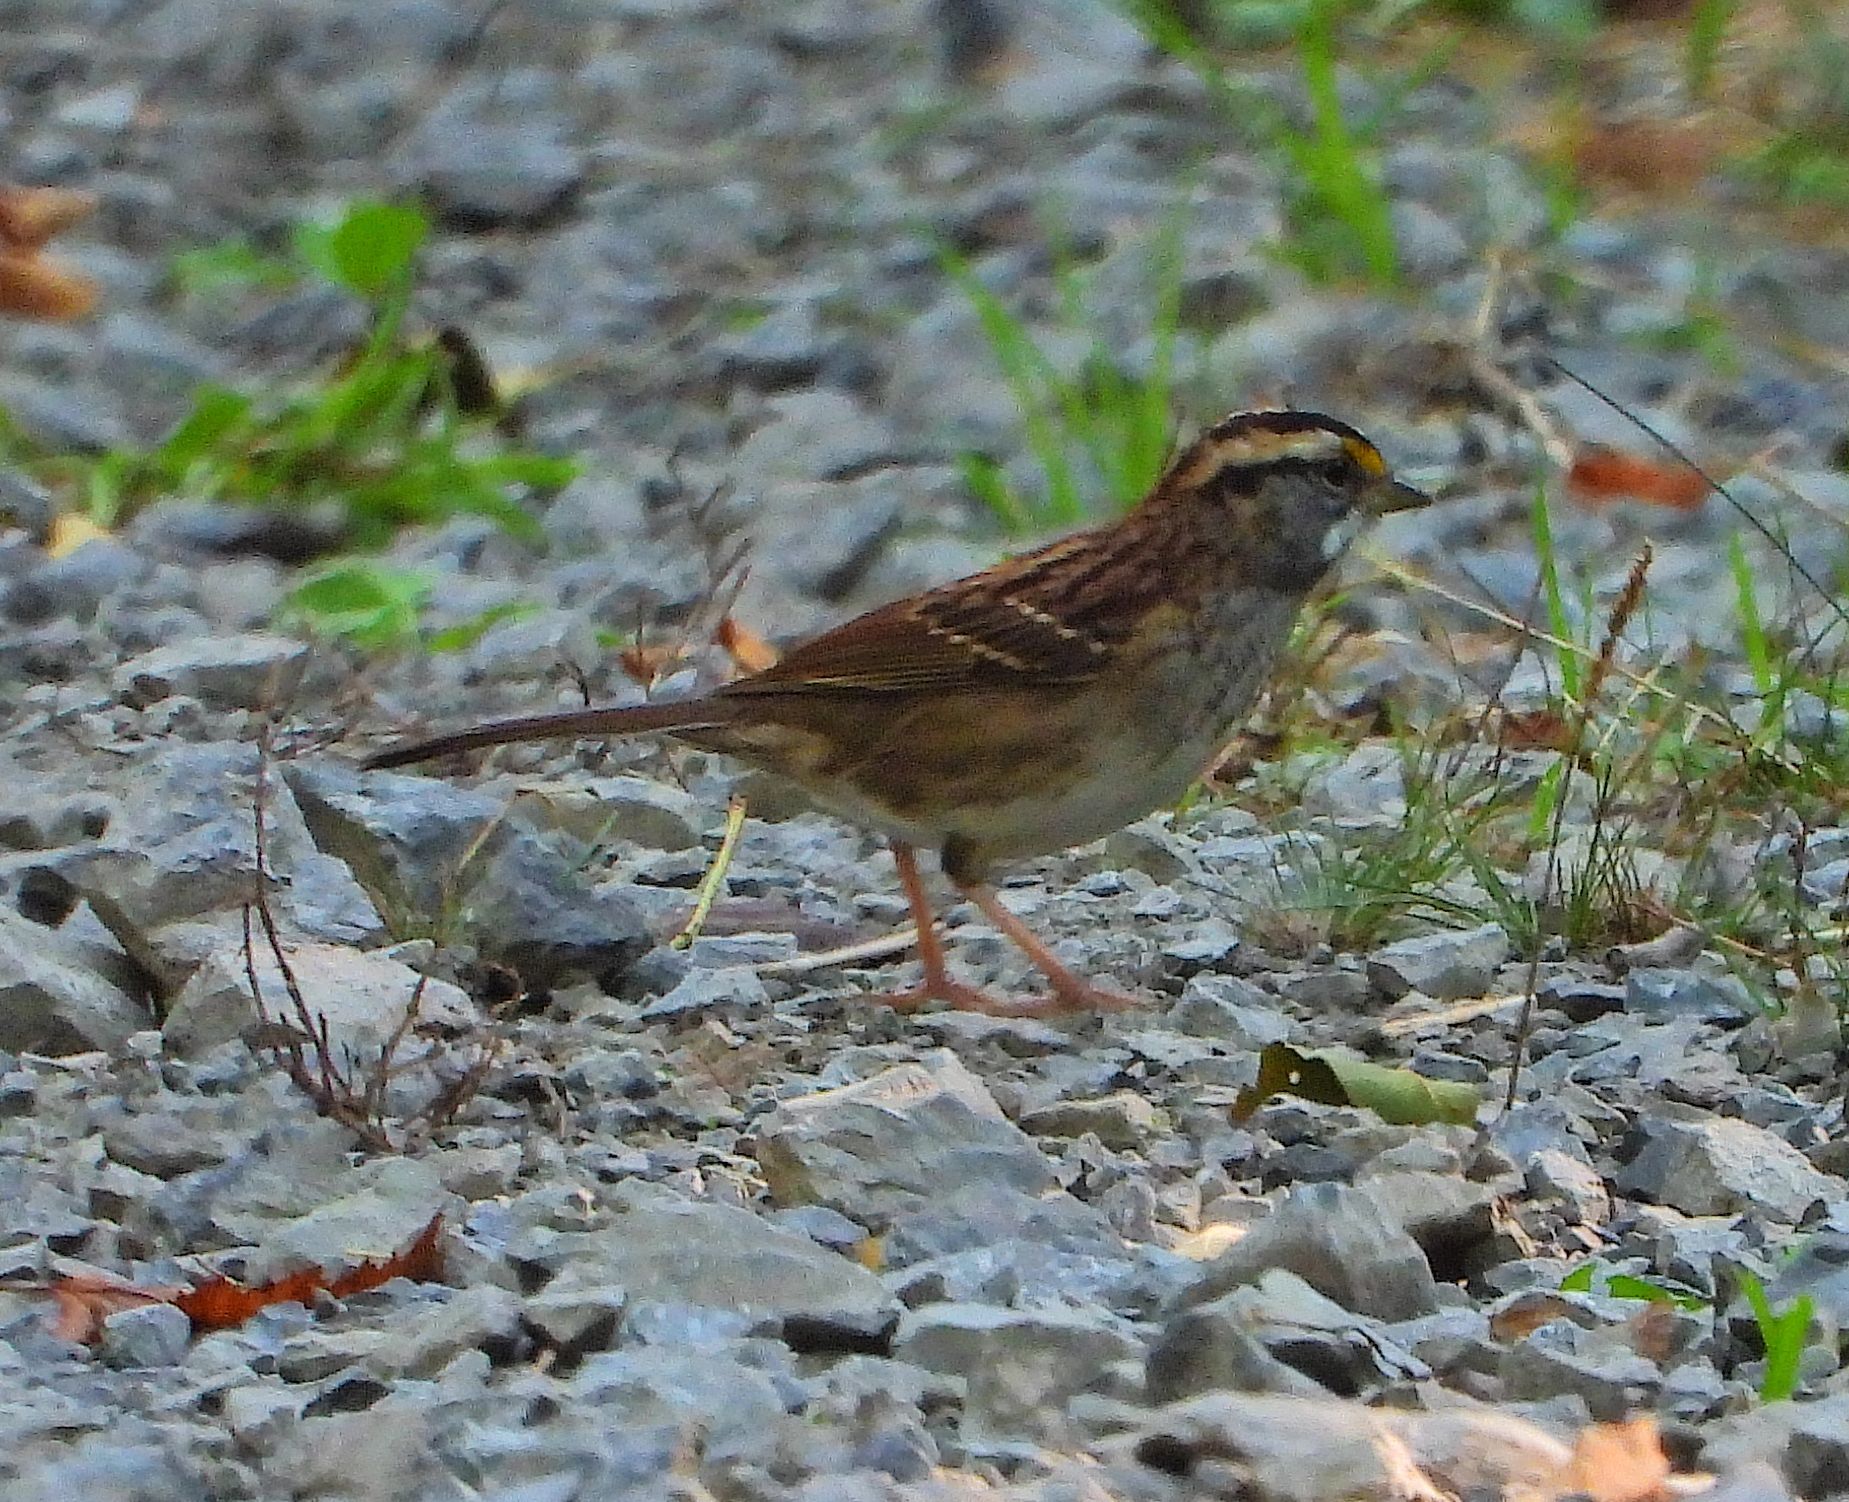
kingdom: Animalia
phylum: Chordata
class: Aves
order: Passeriformes
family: Passerellidae
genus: Zonotrichia
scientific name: Zonotrichia albicollis
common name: White-throated sparrow
